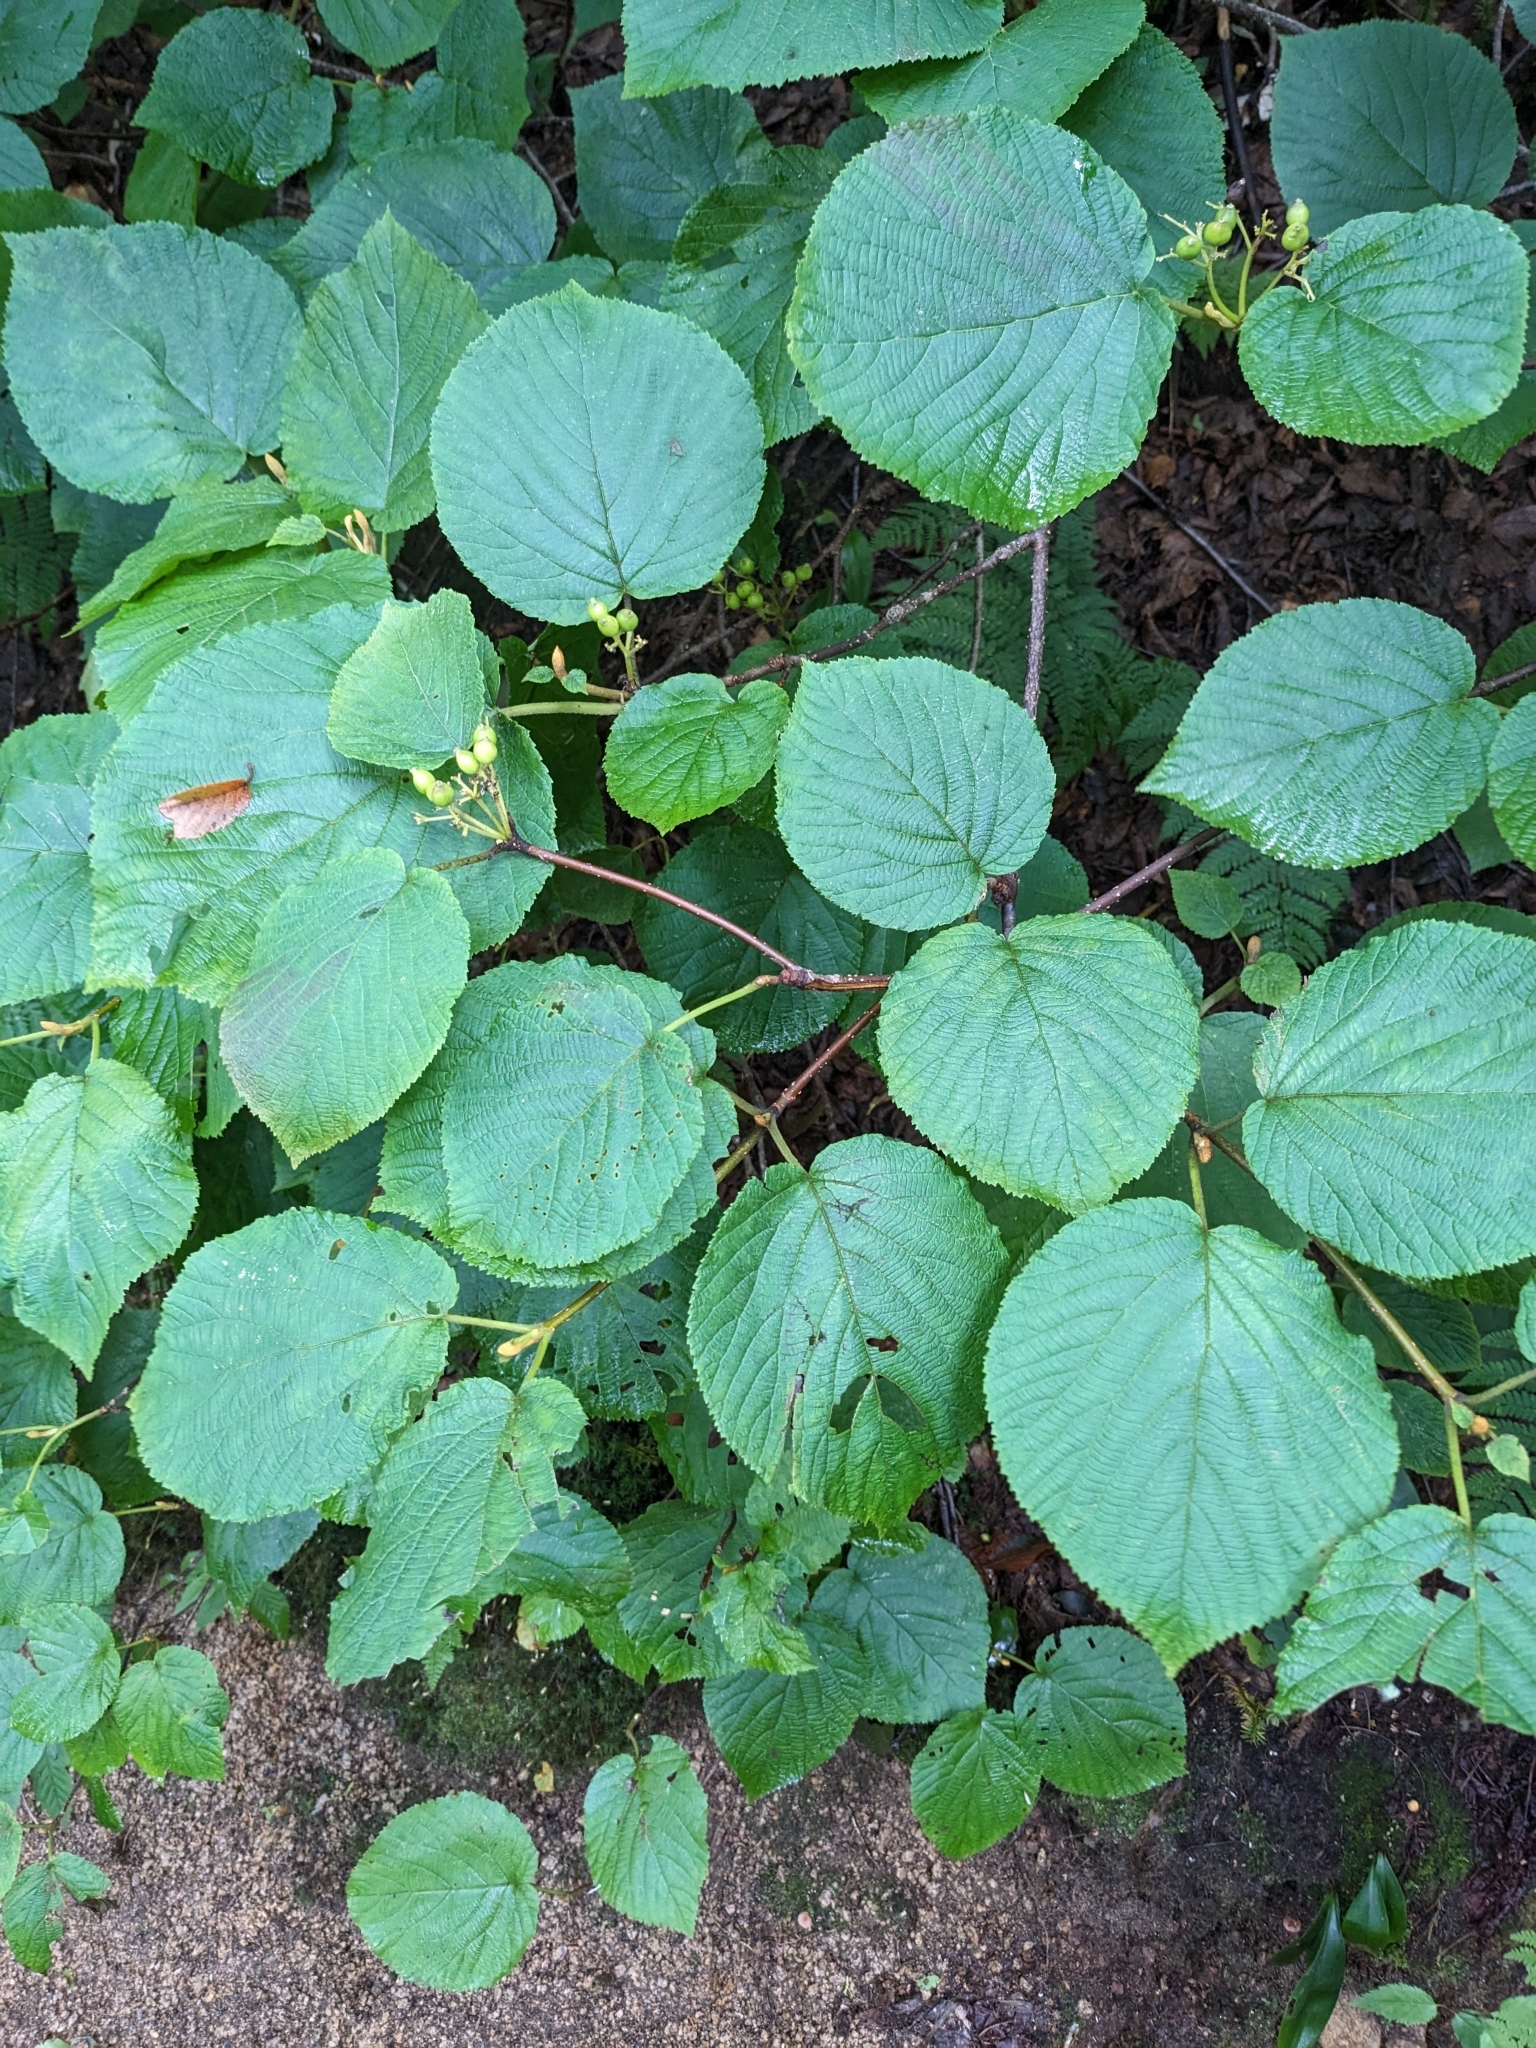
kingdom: Plantae
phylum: Tracheophyta
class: Magnoliopsida
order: Dipsacales
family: Viburnaceae
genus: Viburnum
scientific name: Viburnum lantanoides
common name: Hobblebush
